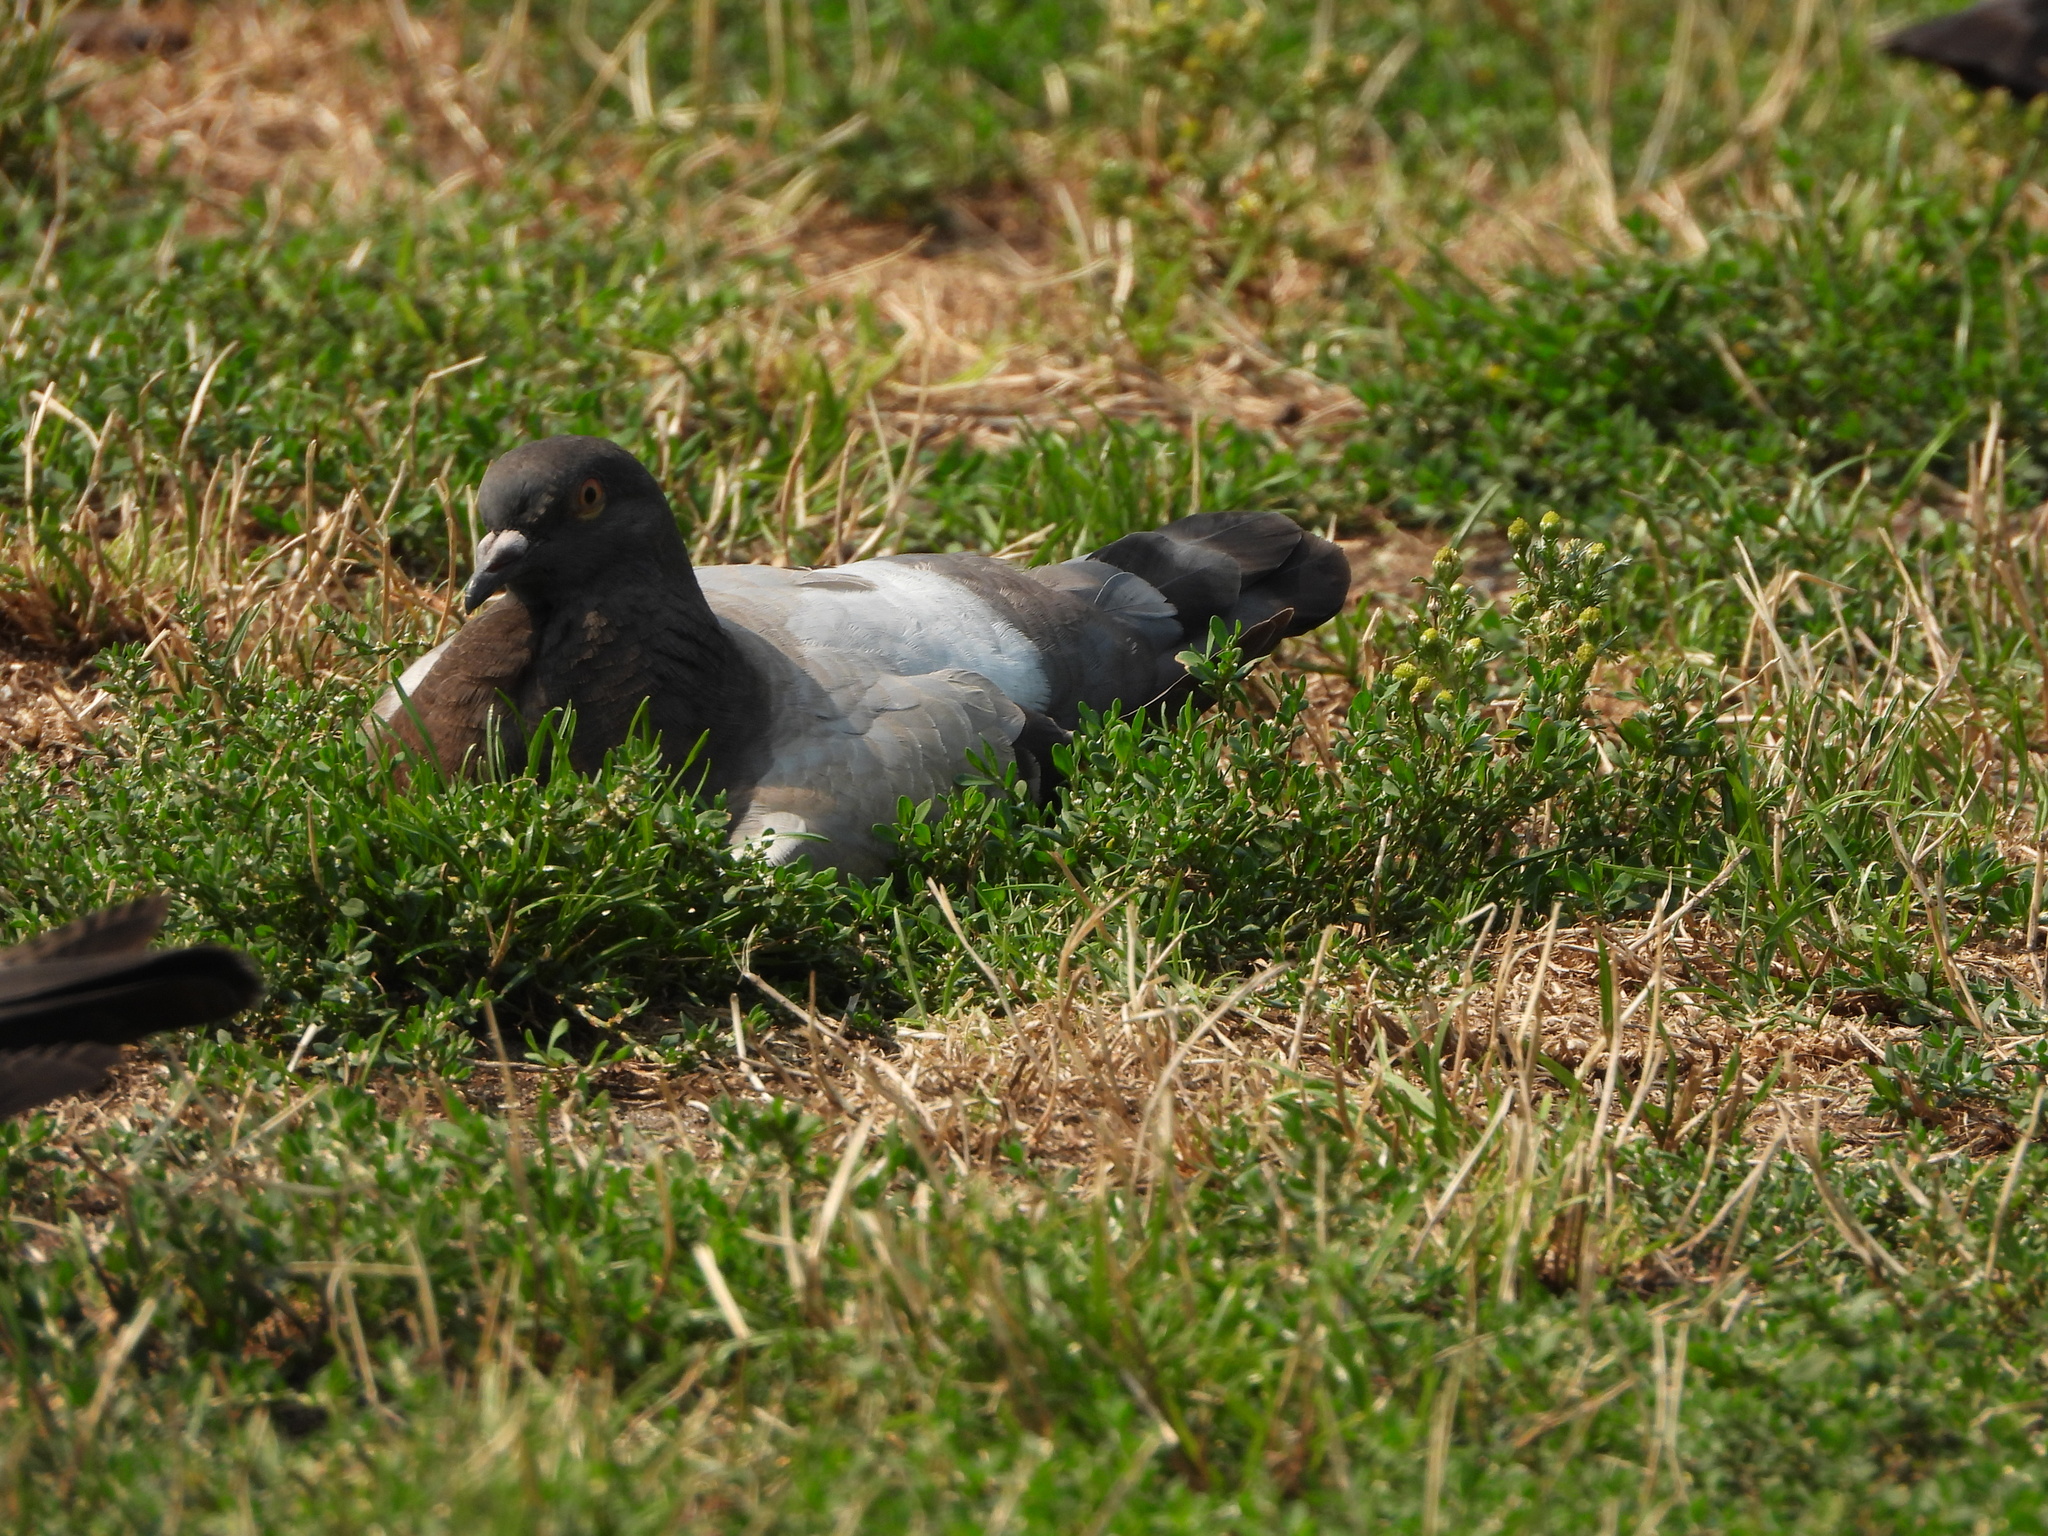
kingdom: Animalia
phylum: Chordata
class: Aves
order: Columbiformes
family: Columbidae
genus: Columba
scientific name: Columba livia
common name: Rock pigeon
